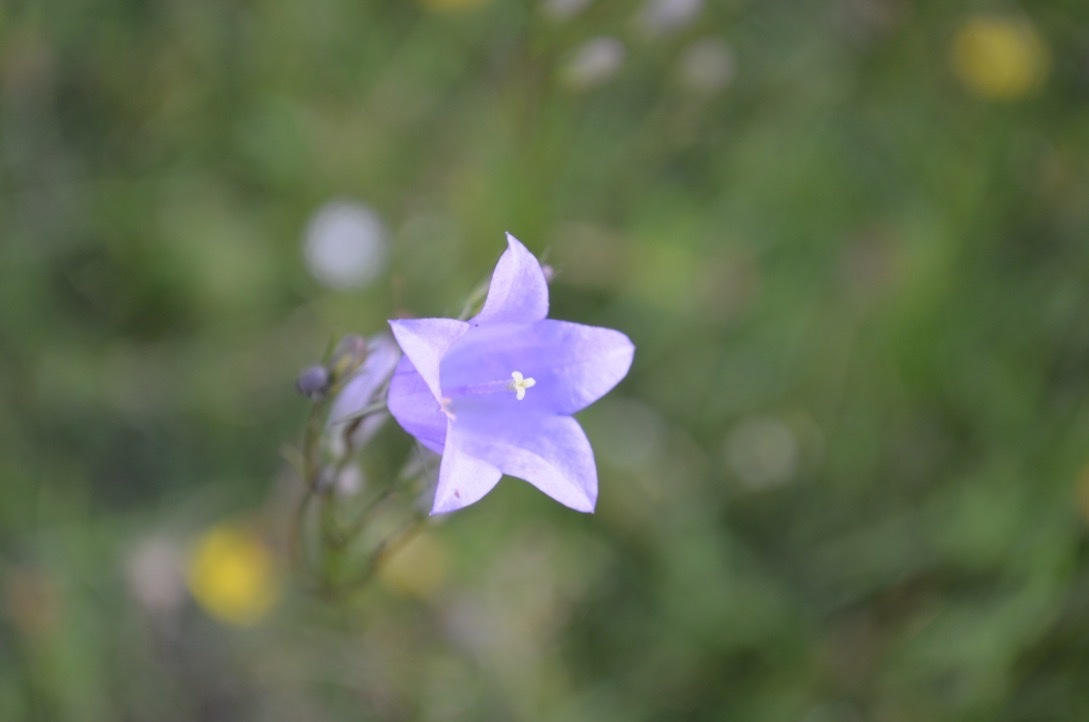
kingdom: Plantae
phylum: Tracheophyta
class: Magnoliopsida
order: Asterales
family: Campanulaceae
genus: Campanula
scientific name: Campanula rotundifolia
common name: Harebell
